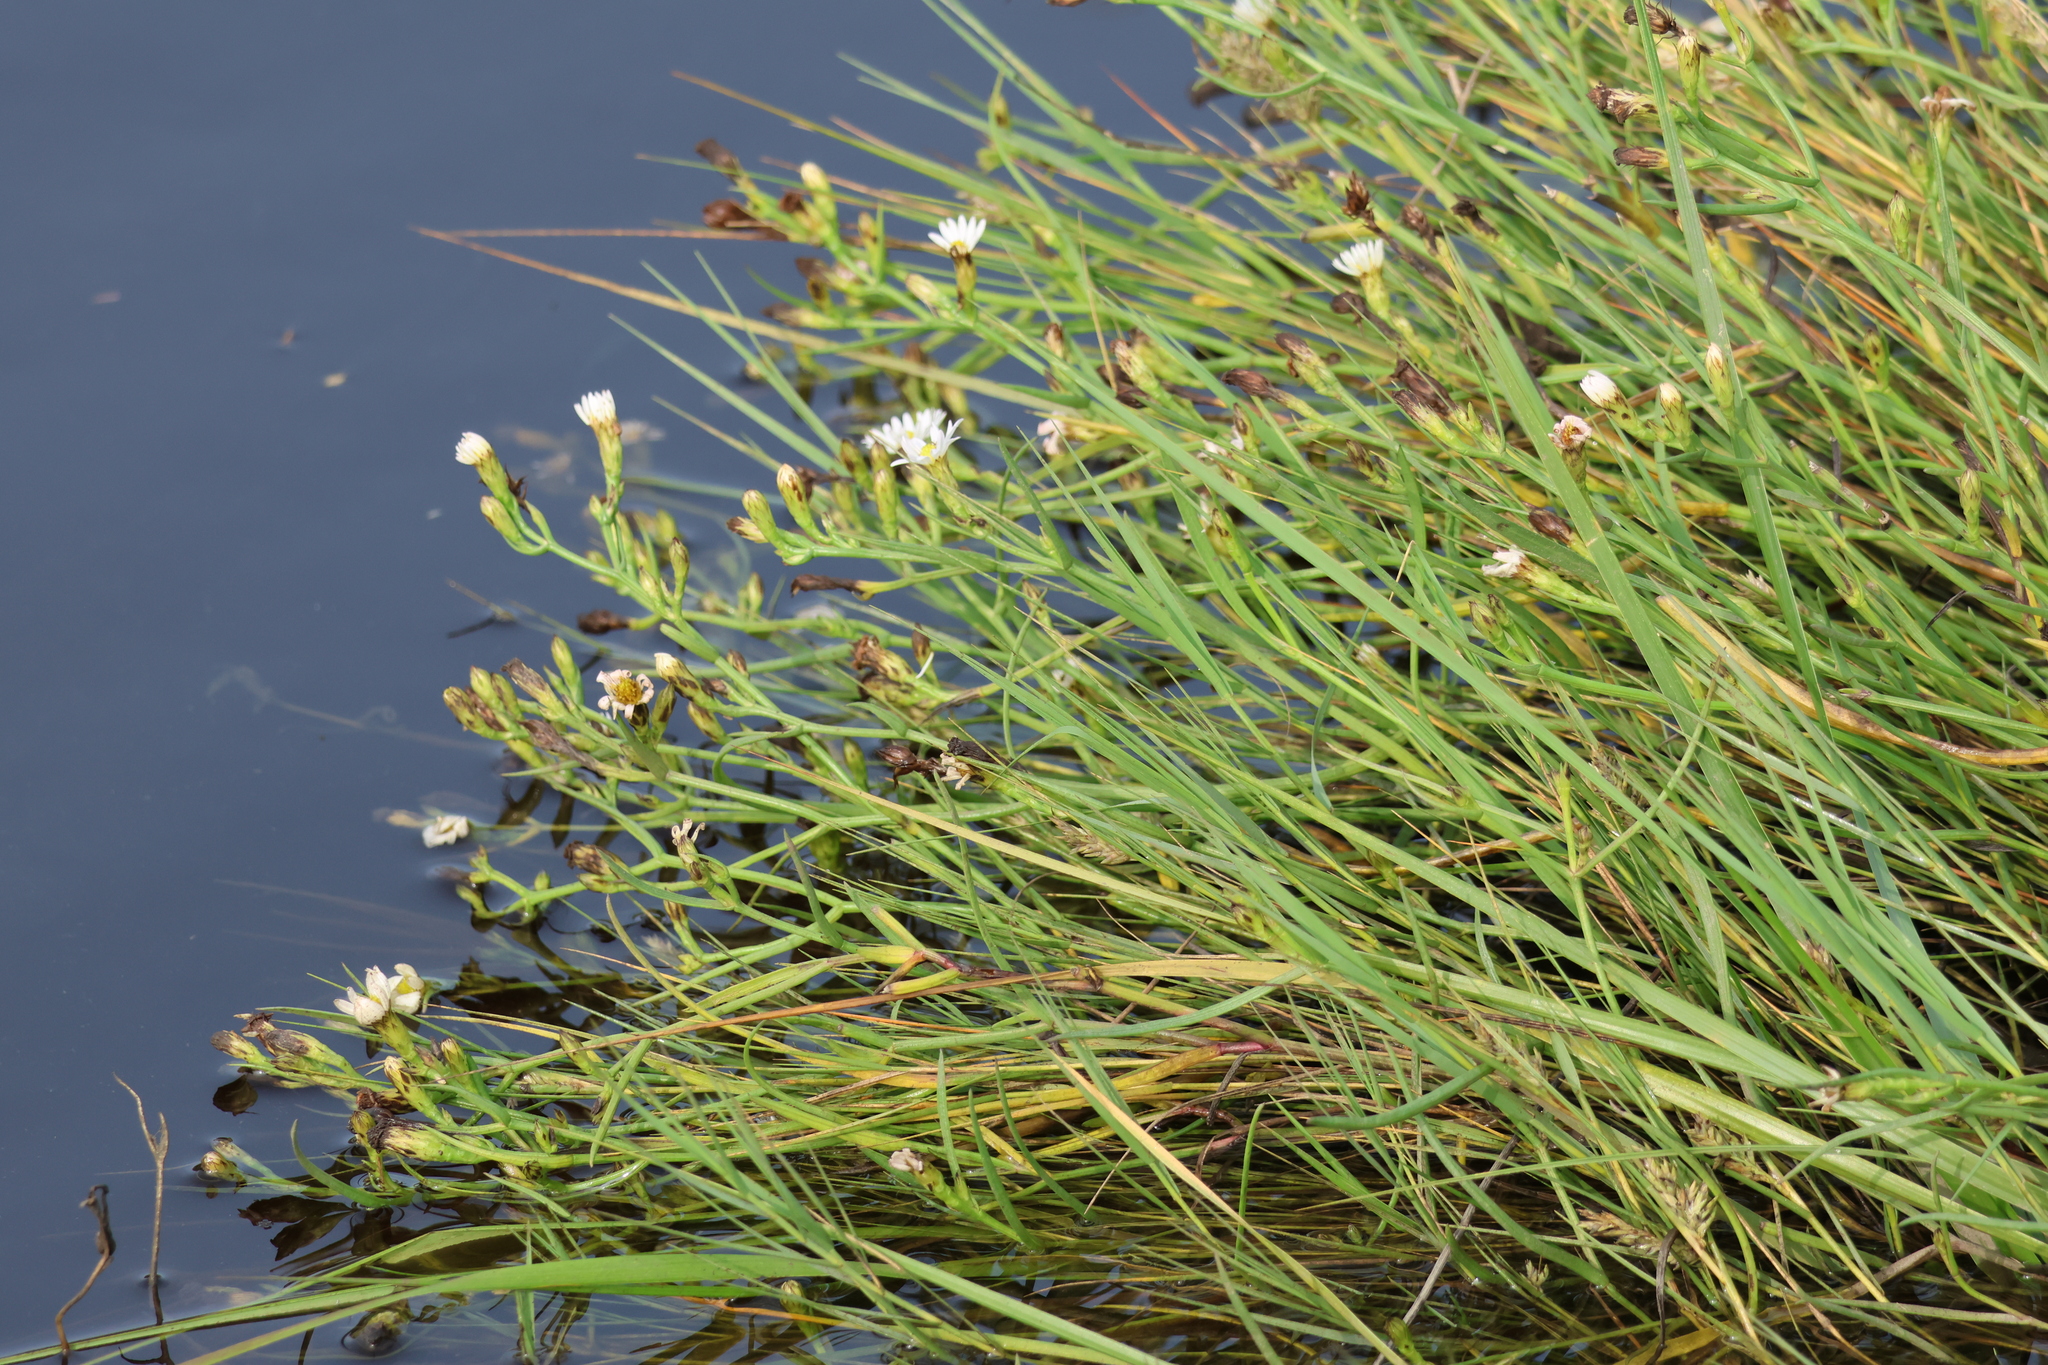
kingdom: Plantae
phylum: Tracheophyta
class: Magnoliopsida
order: Asterales
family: Asteraceae
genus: Symphyotrichum
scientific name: Symphyotrichum tenuifolium
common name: Perennial salt-marsh aster
